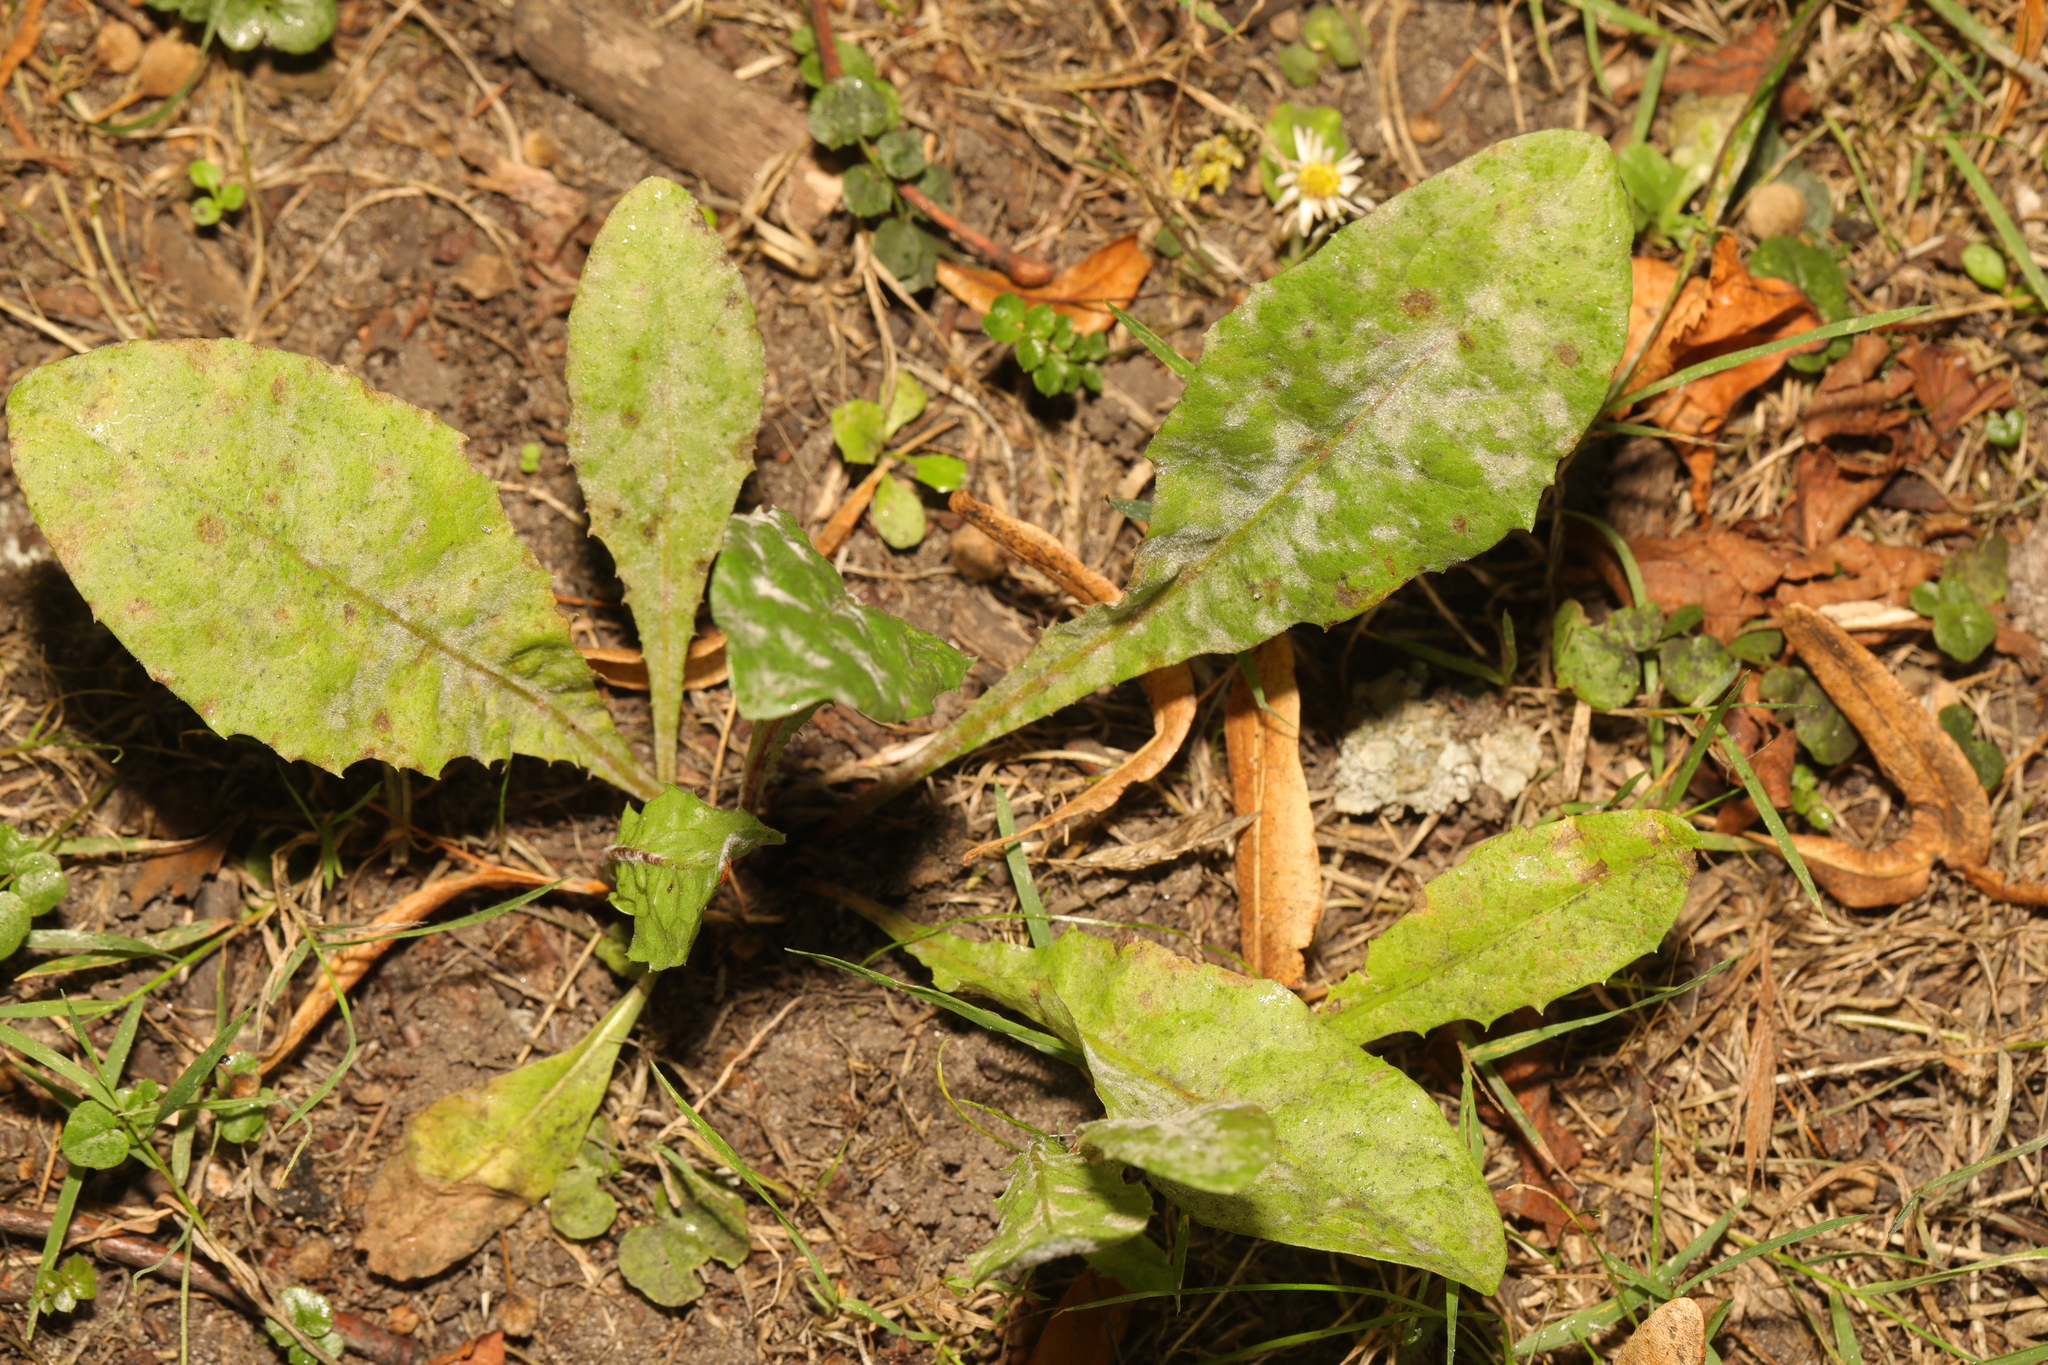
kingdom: Plantae
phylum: Tracheophyta
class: Magnoliopsida
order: Asterales
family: Asteraceae
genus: Taraxacum
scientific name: Taraxacum officinale
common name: Common dandelion
